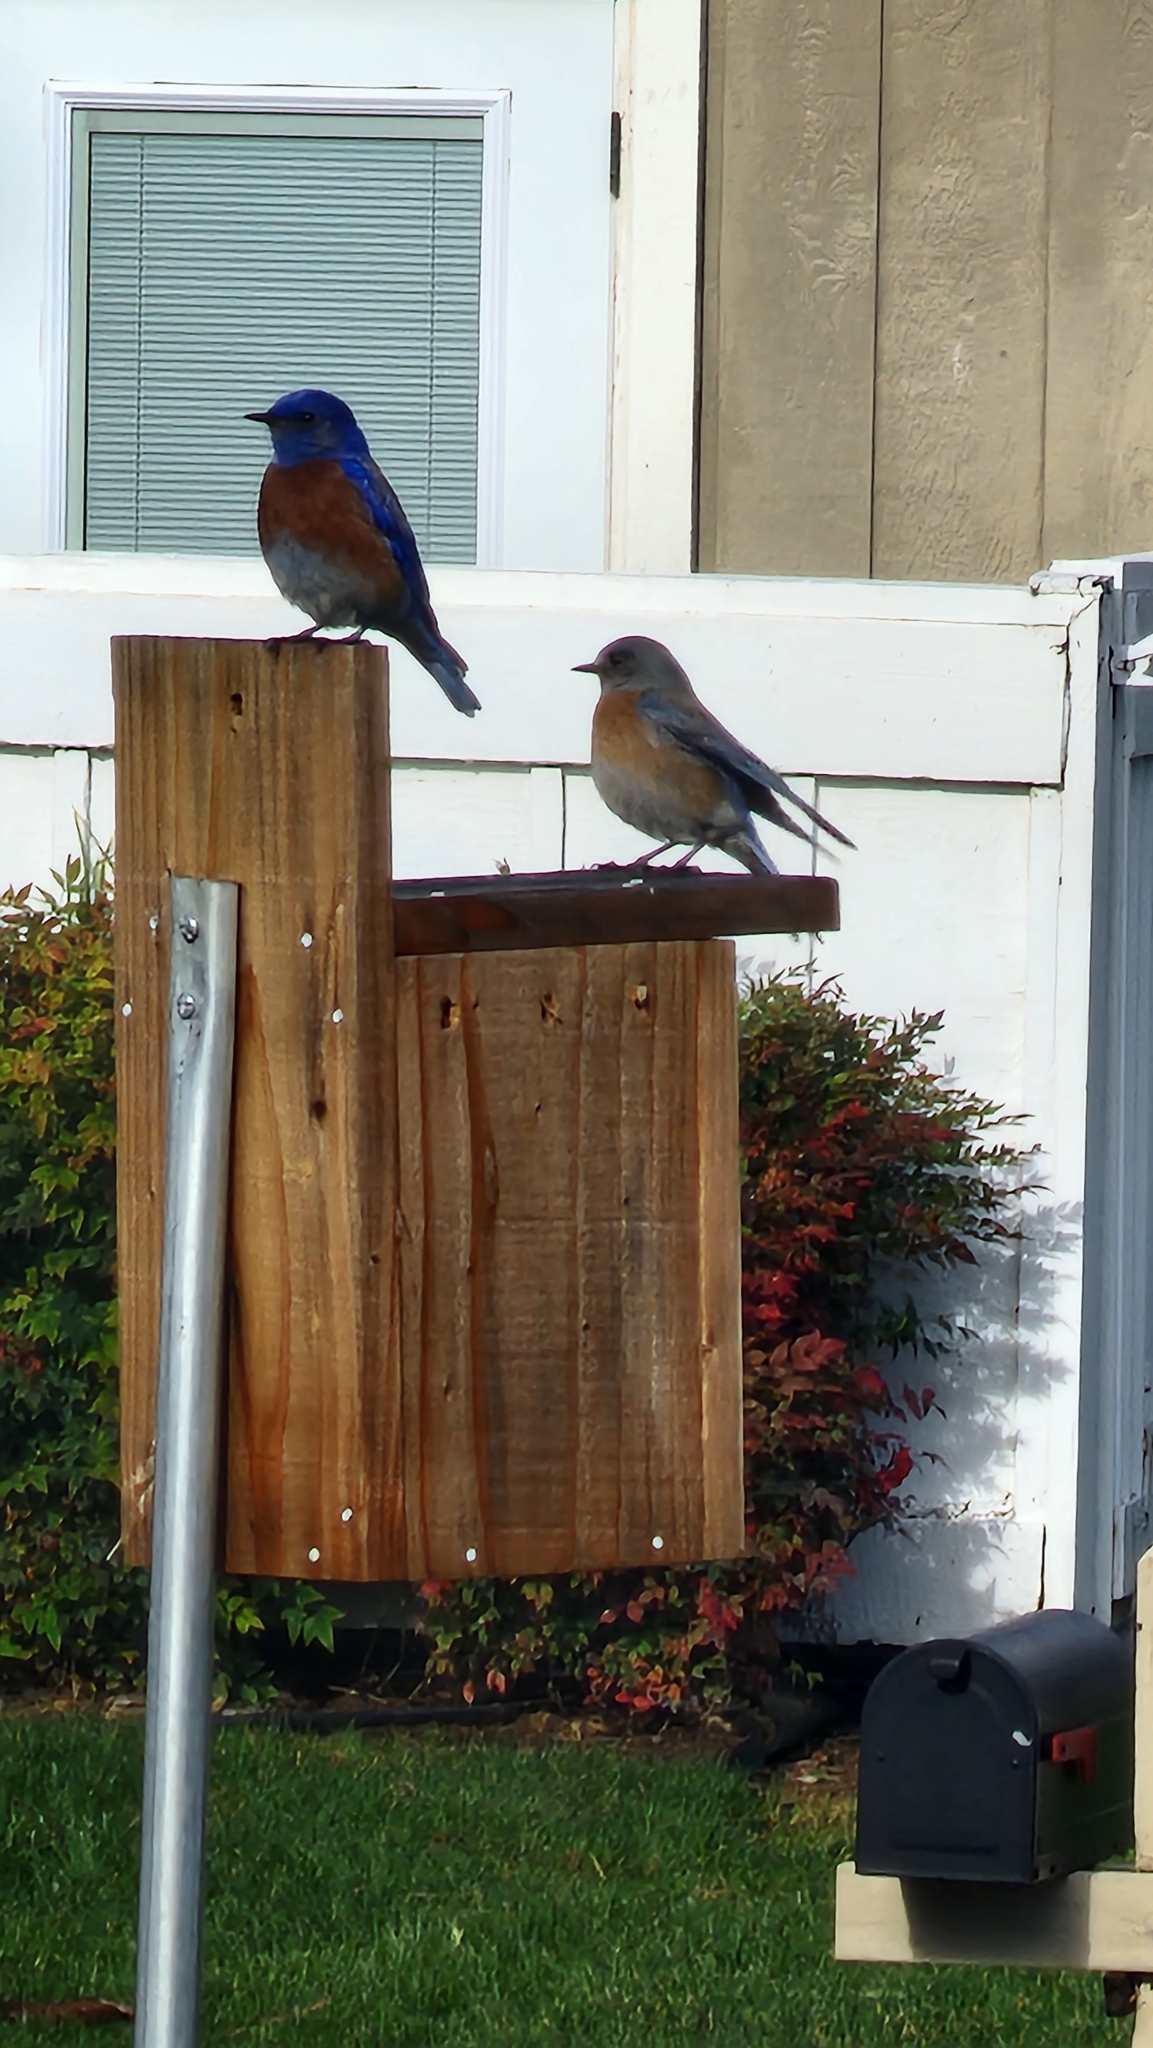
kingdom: Animalia
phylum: Chordata
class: Aves
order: Passeriformes
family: Turdidae
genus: Sialia
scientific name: Sialia mexicana
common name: Western bluebird
